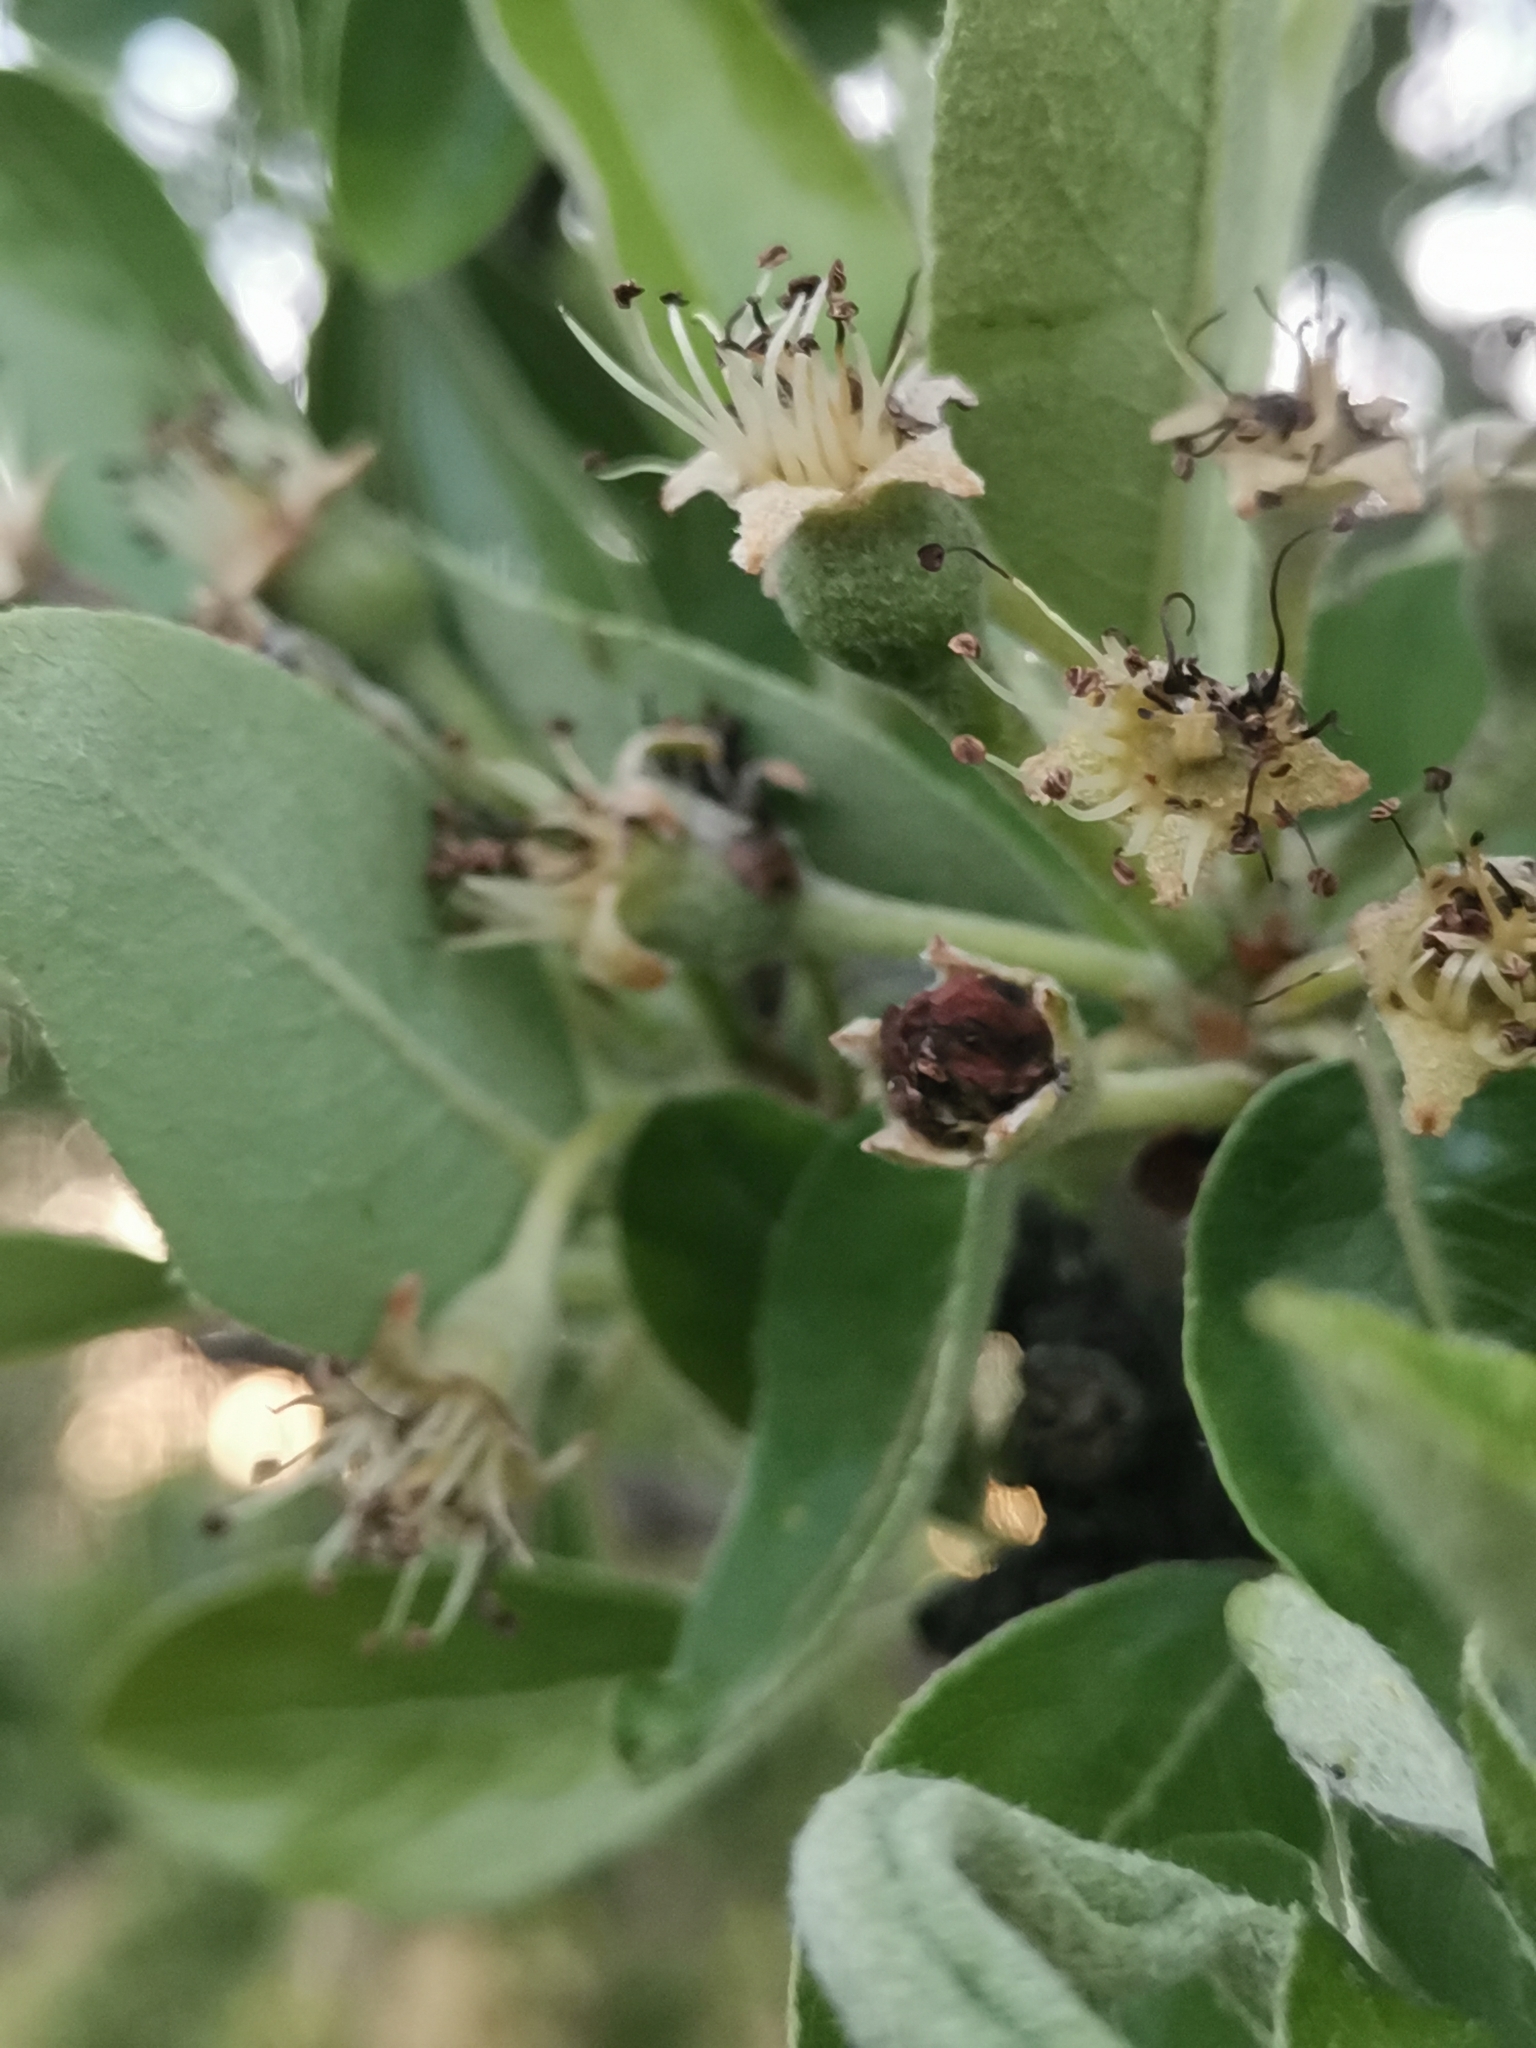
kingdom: Plantae
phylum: Tracheophyta
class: Magnoliopsida
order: Rosales
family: Rosaceae
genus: Pyrus
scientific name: Pyrus spinosa
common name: Almond-leaf pear
